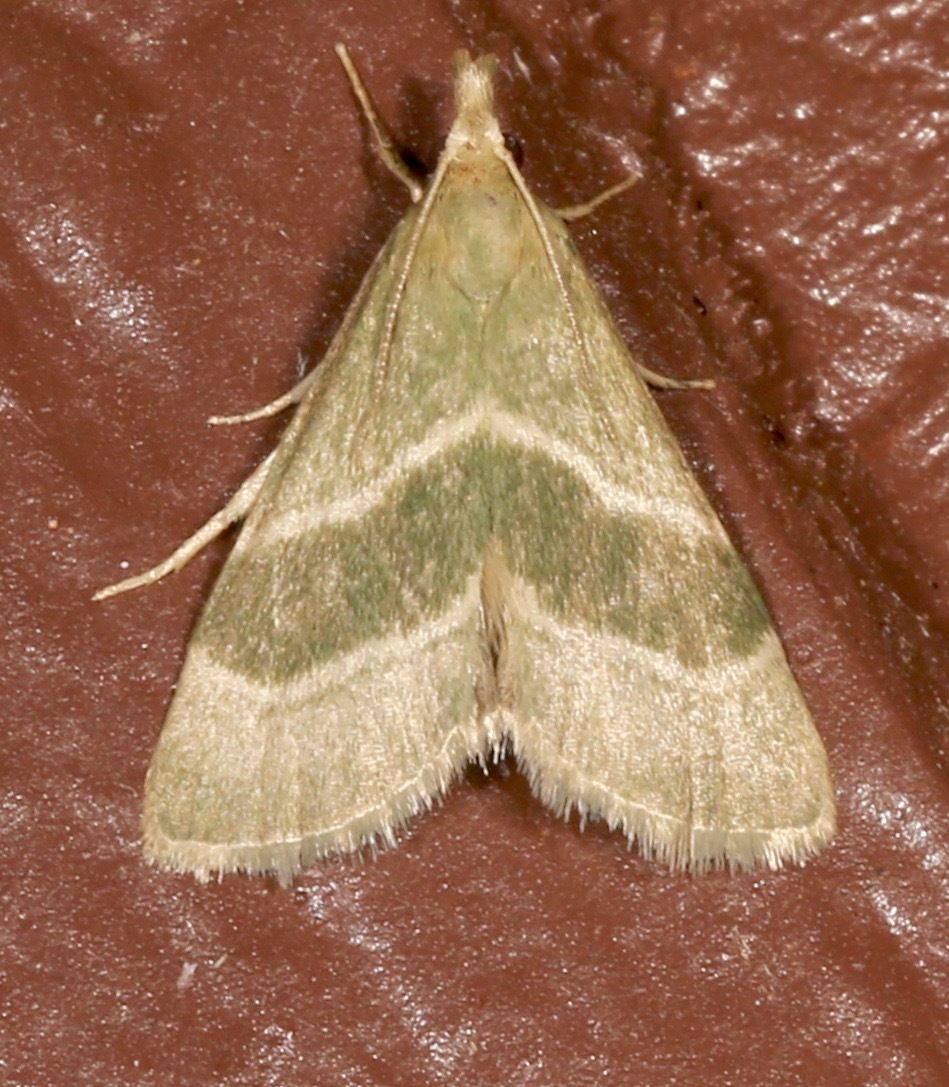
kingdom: Animalia
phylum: Arthropoda
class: Insecta
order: Lepidoptera
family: Pyralidae
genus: Anemosella
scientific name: Anemosella viridalis
